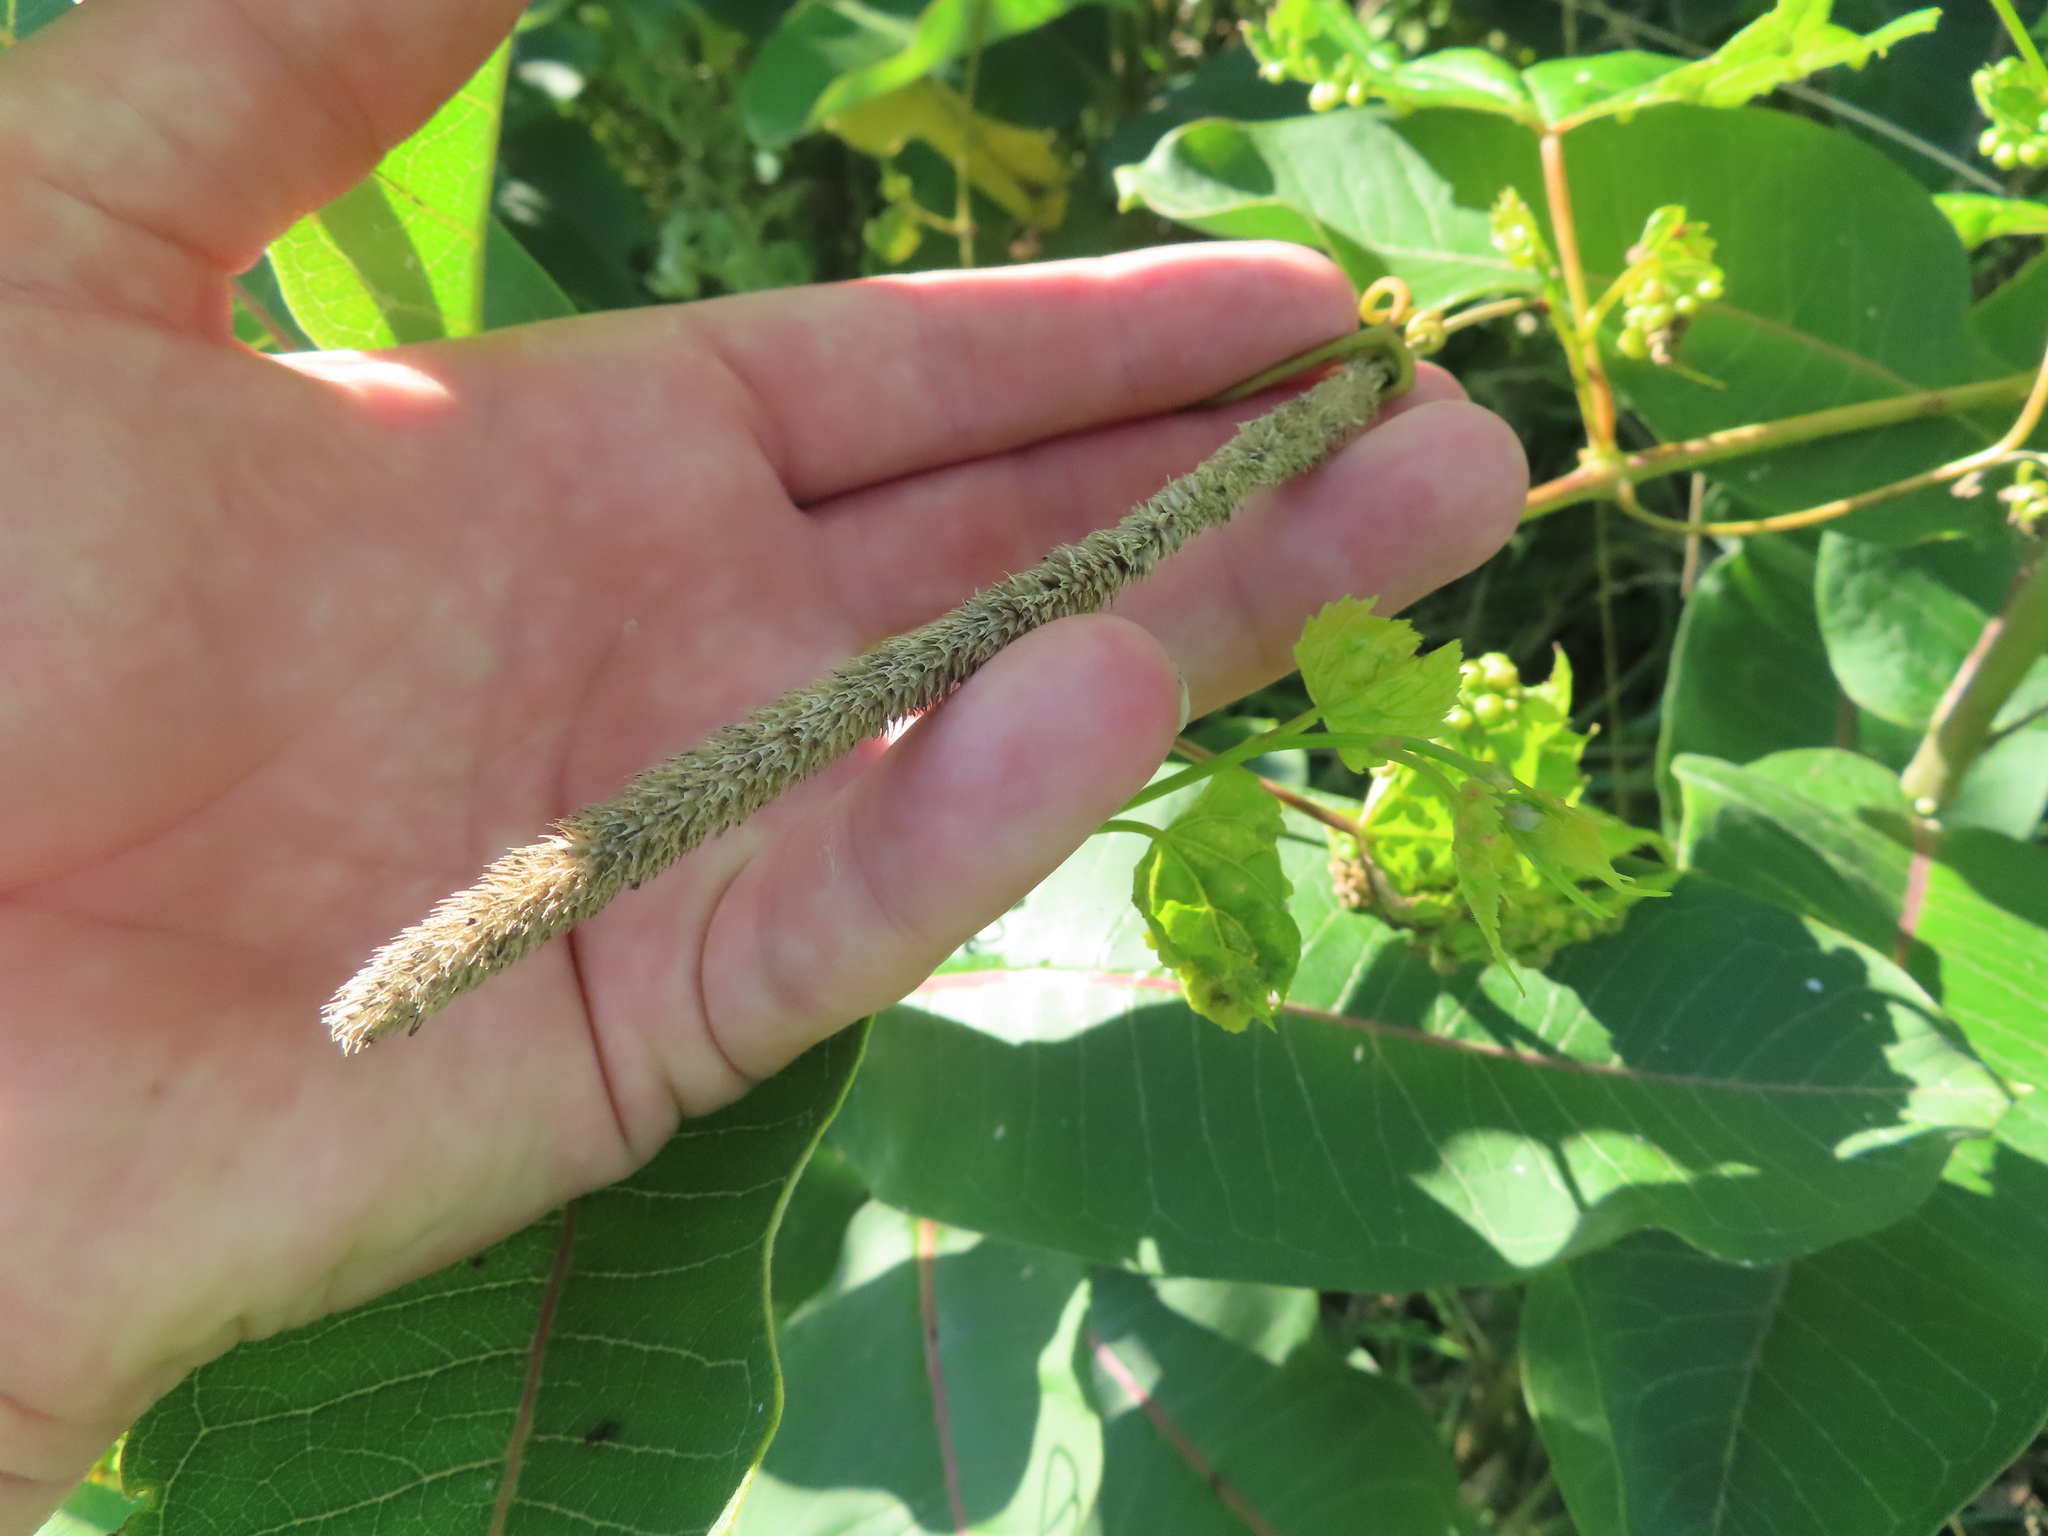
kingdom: Plantae
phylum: Tracheophyta
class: Liliopsida
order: Poales
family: Poaceae
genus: Phleum
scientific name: Phleum pratense
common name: Timothy grass
